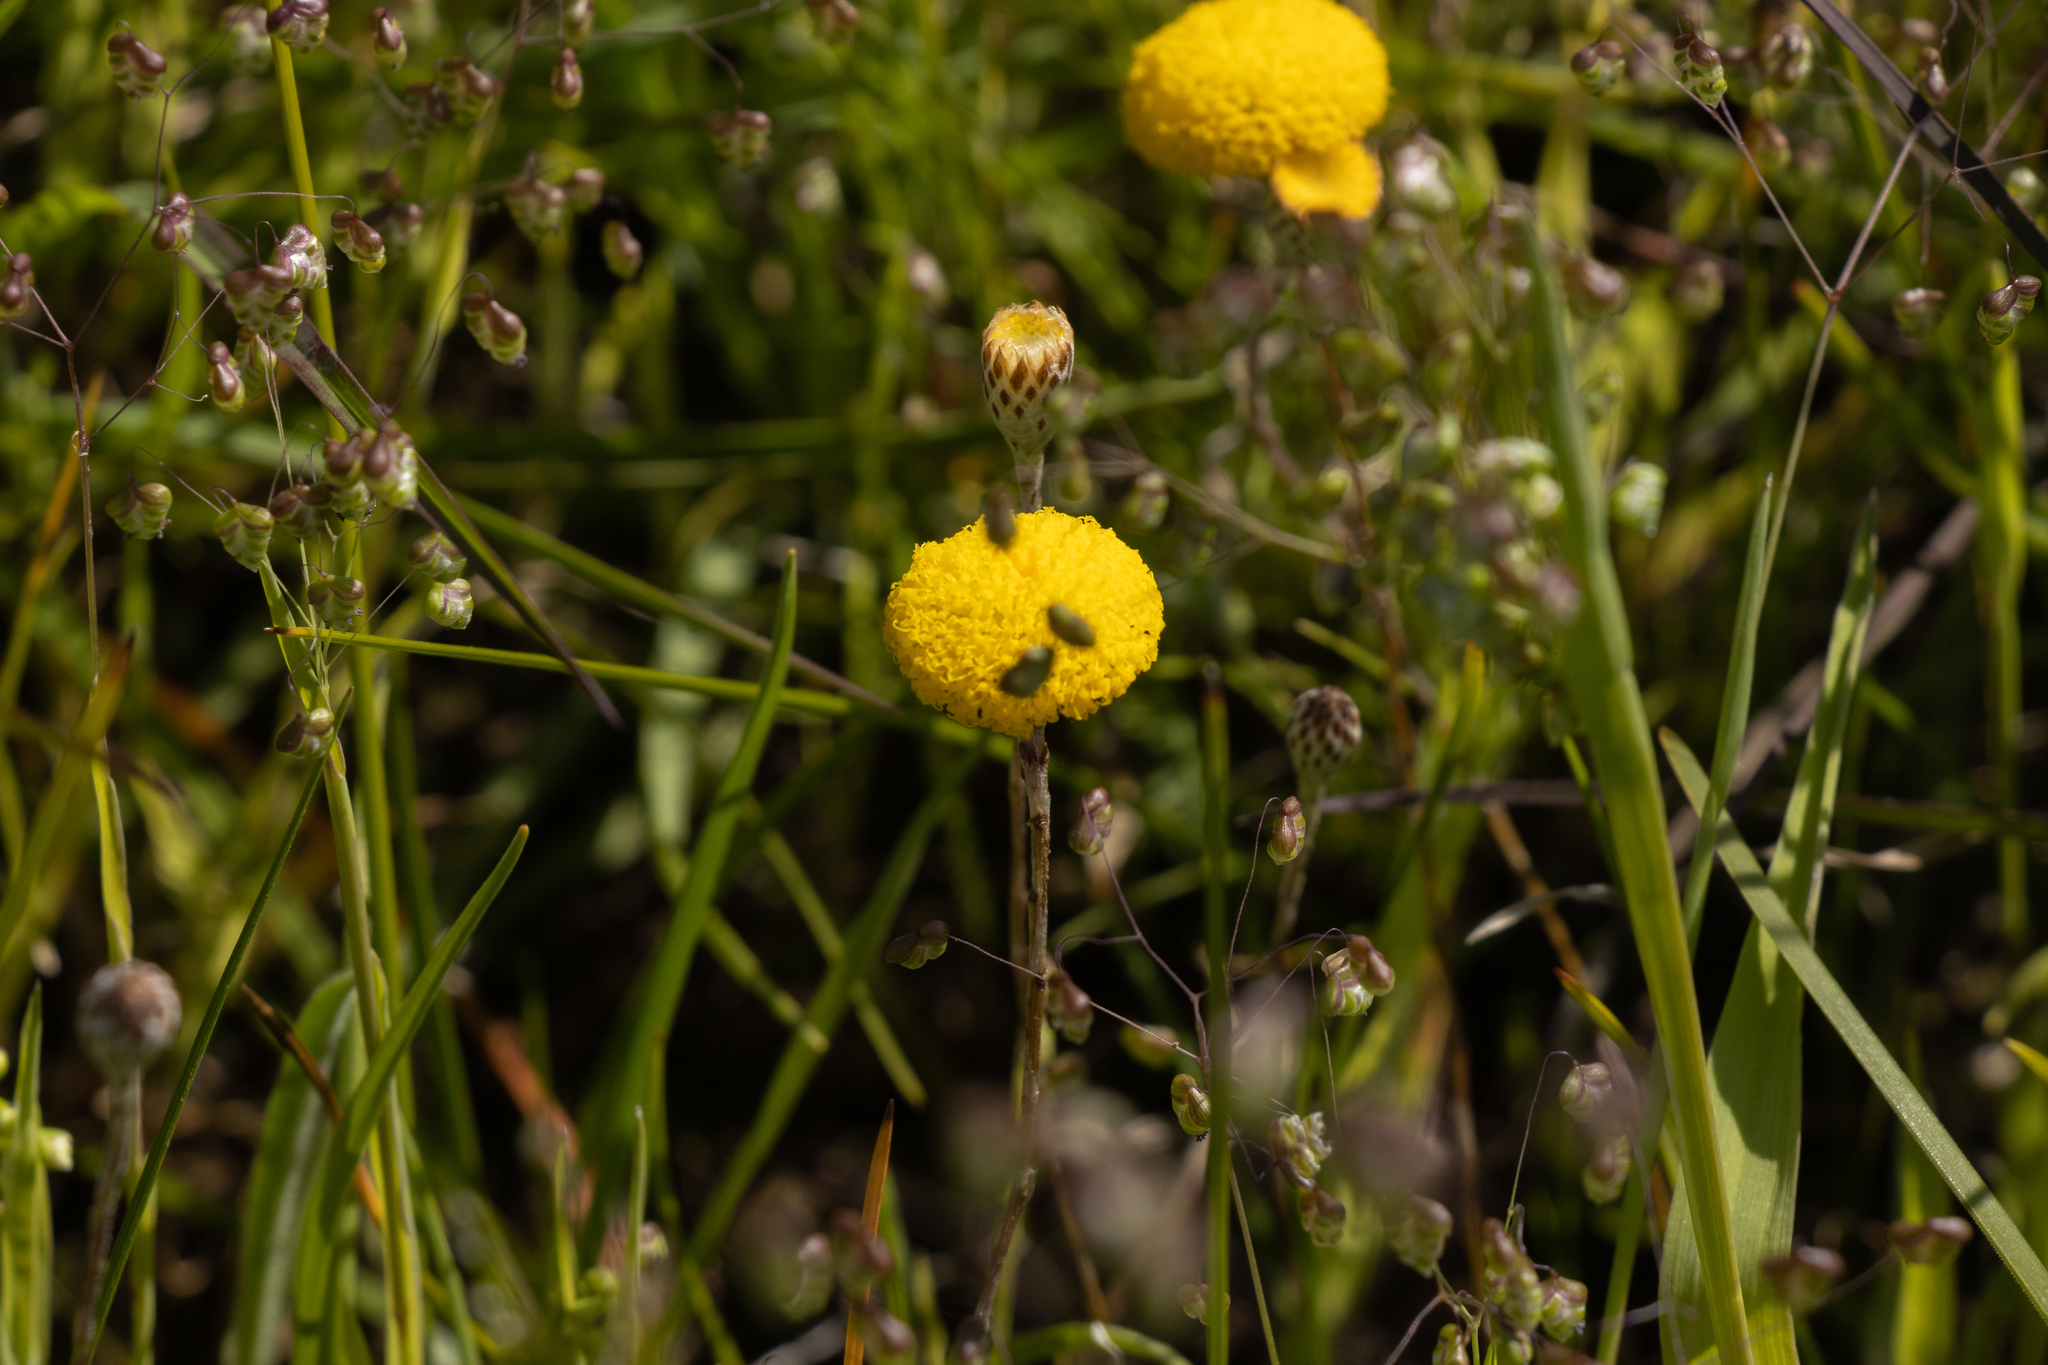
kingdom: Plantae
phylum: Tracheophyta
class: Magnoliopsida
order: Asterales
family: Asteraceae
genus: Leptorhynchos
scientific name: Leptorhynchos squamatus
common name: Scaly-buttons
